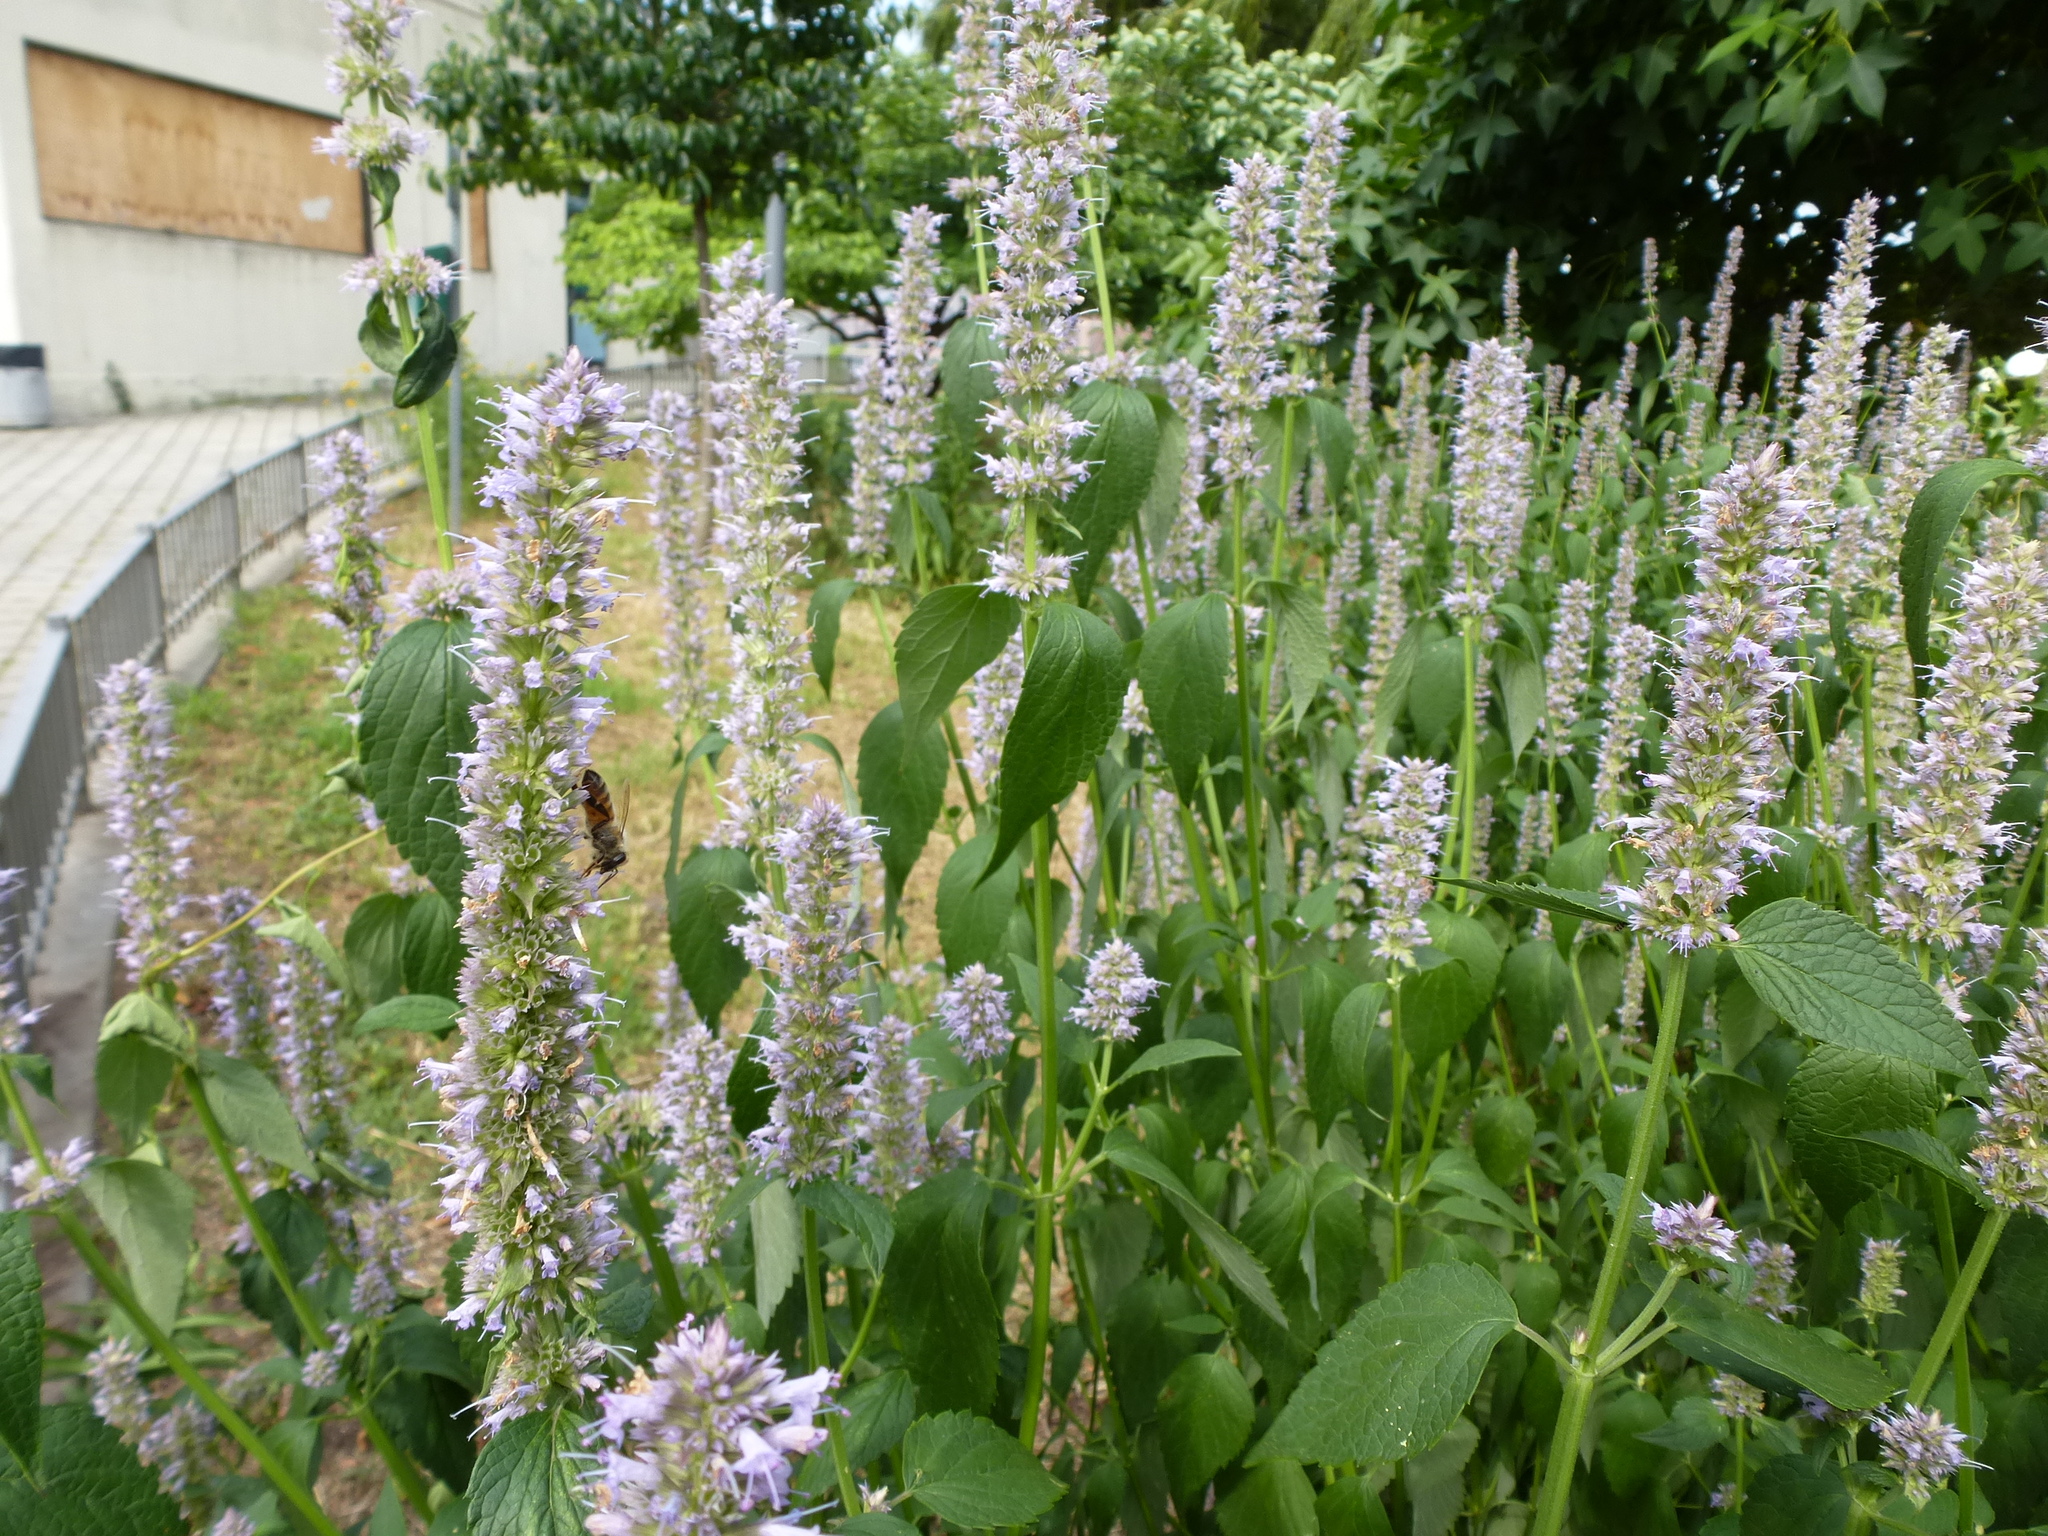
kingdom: Animalia
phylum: Arthropoda
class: Insecta
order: Hymenoptera
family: Apidae
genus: Apis
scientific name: Apis mellifera
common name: Honey bee
